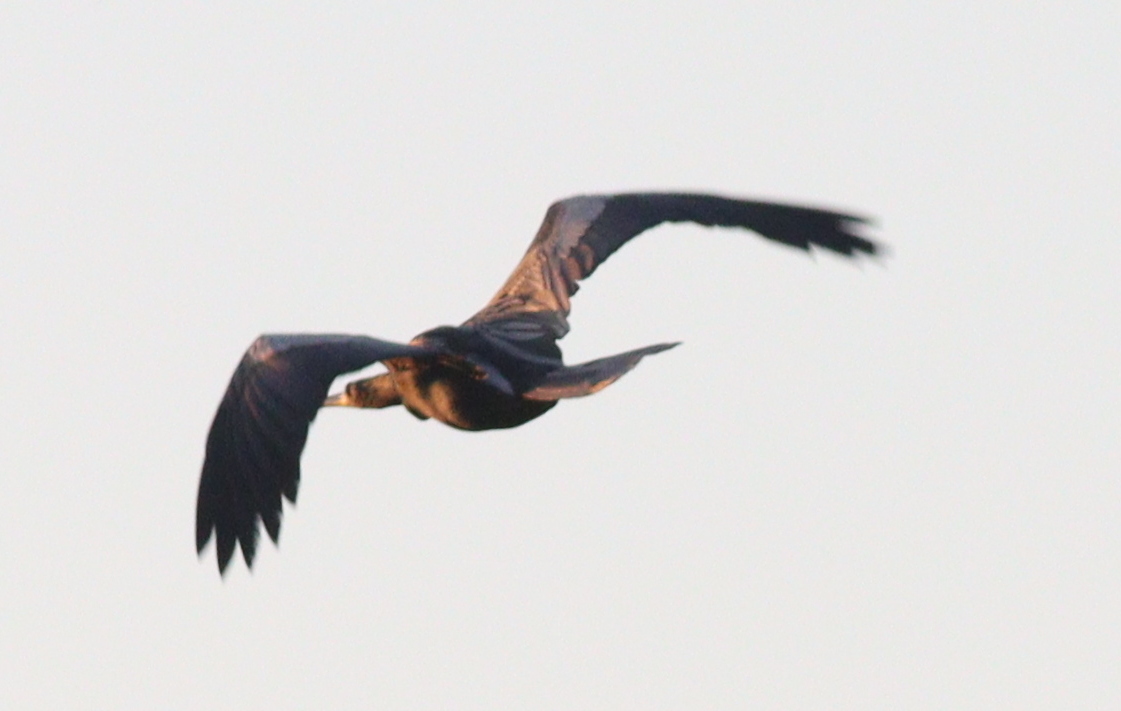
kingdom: Animalia
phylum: Chordata
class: Aves
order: Suliformes
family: Anhingidae
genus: Anhinga
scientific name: Anhinga anhinga
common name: Anhinga
